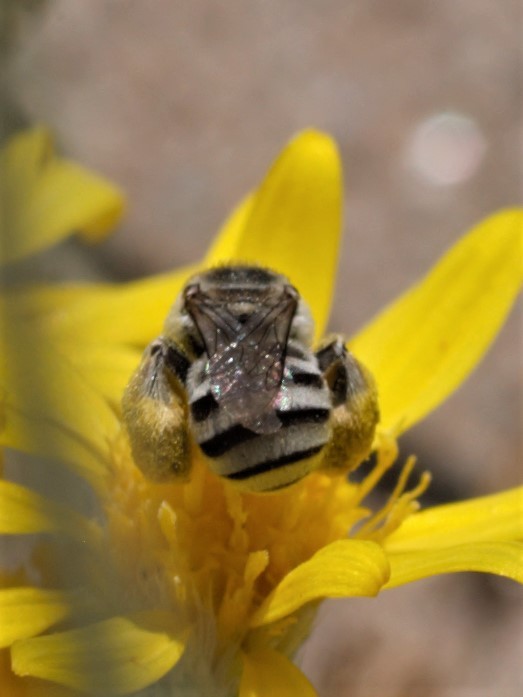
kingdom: Animalia
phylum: Arthropoda
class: Insecta
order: Hymenoptera
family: Apidae
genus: Anthophorula
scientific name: Anthophorula
